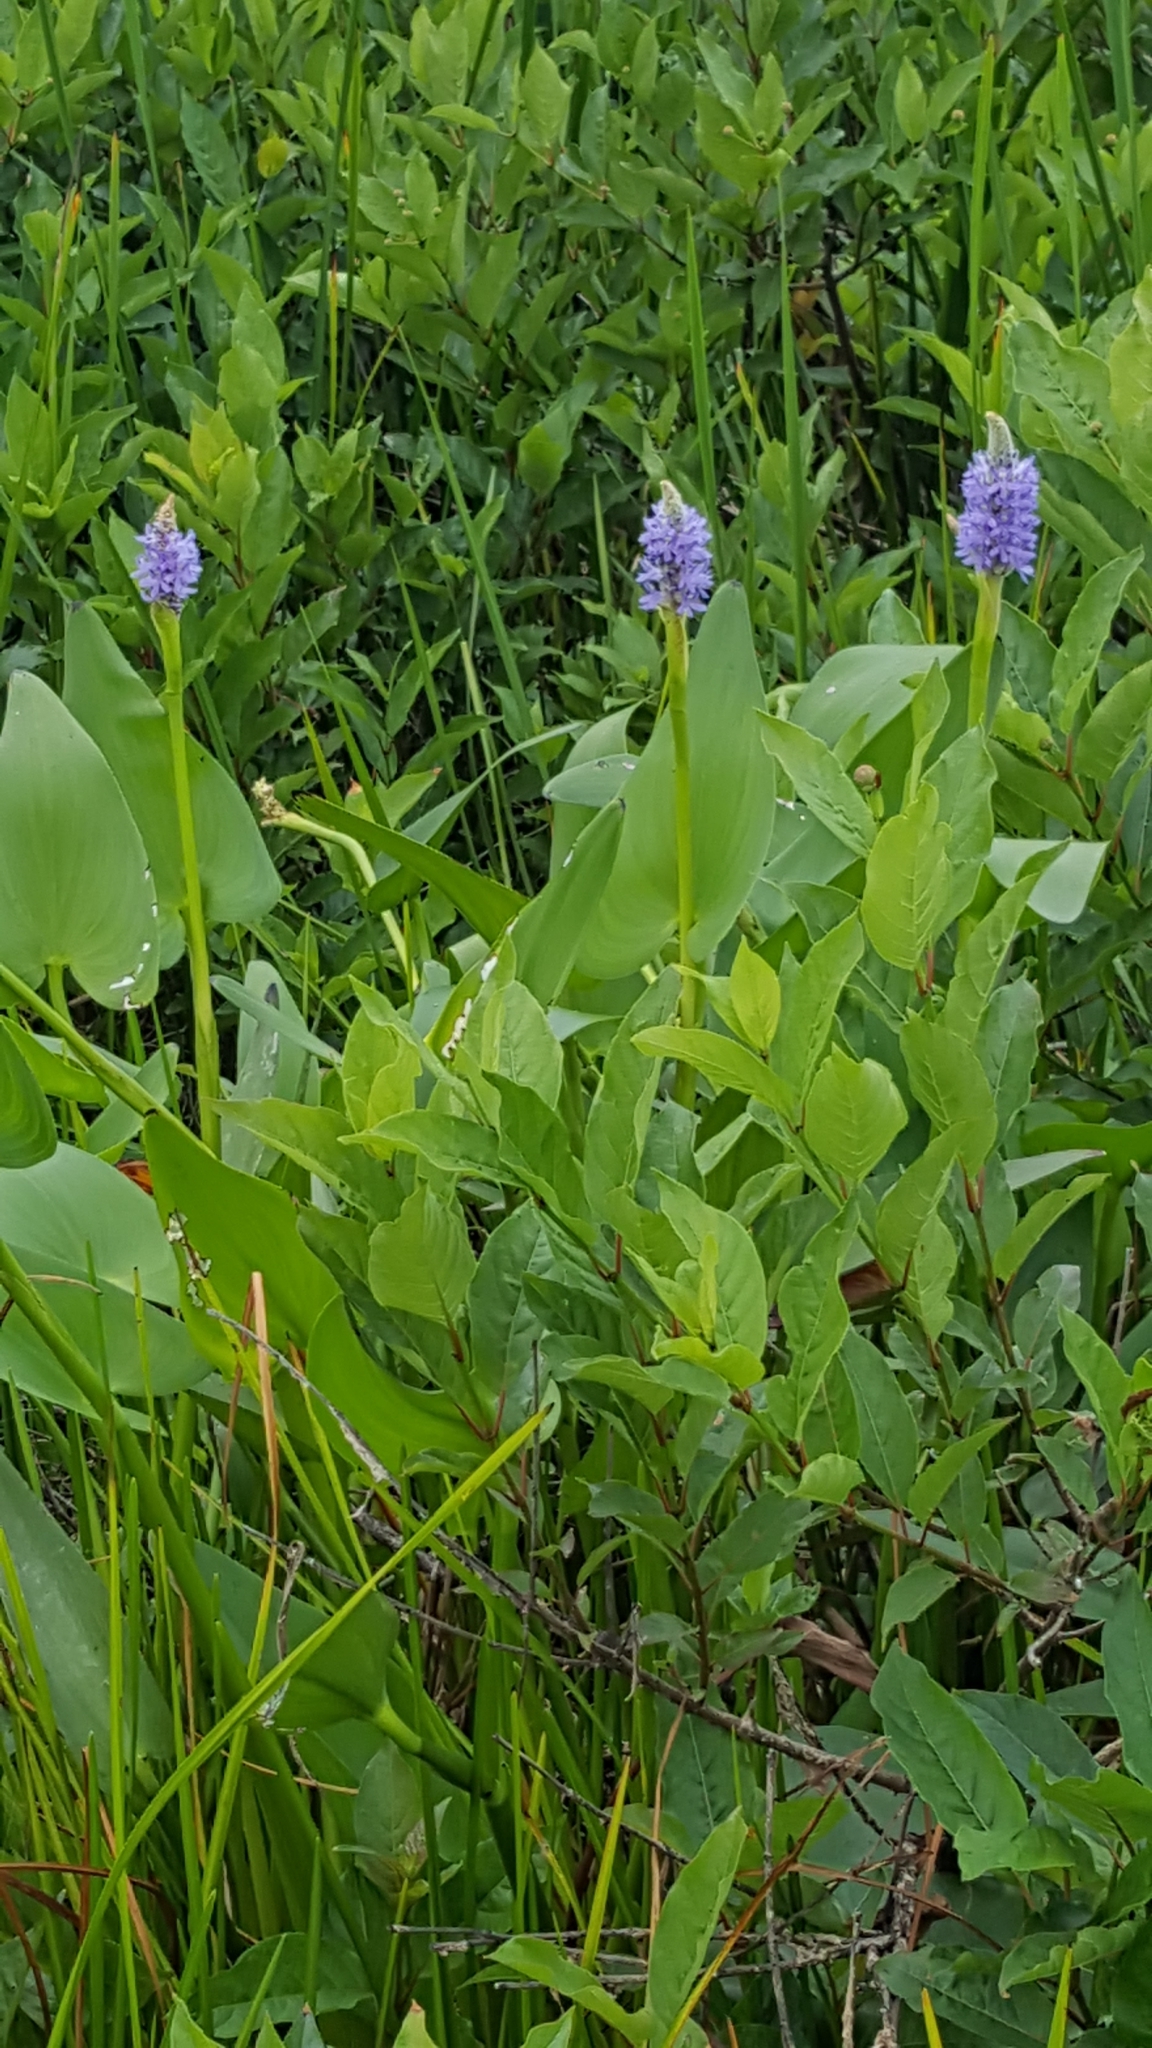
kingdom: Plantae
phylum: Tracheophyta
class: Liliopsida
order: Commelinales
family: Pontederiaceae
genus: Pontederia
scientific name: Pontederia cordata
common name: Pickerelweed
